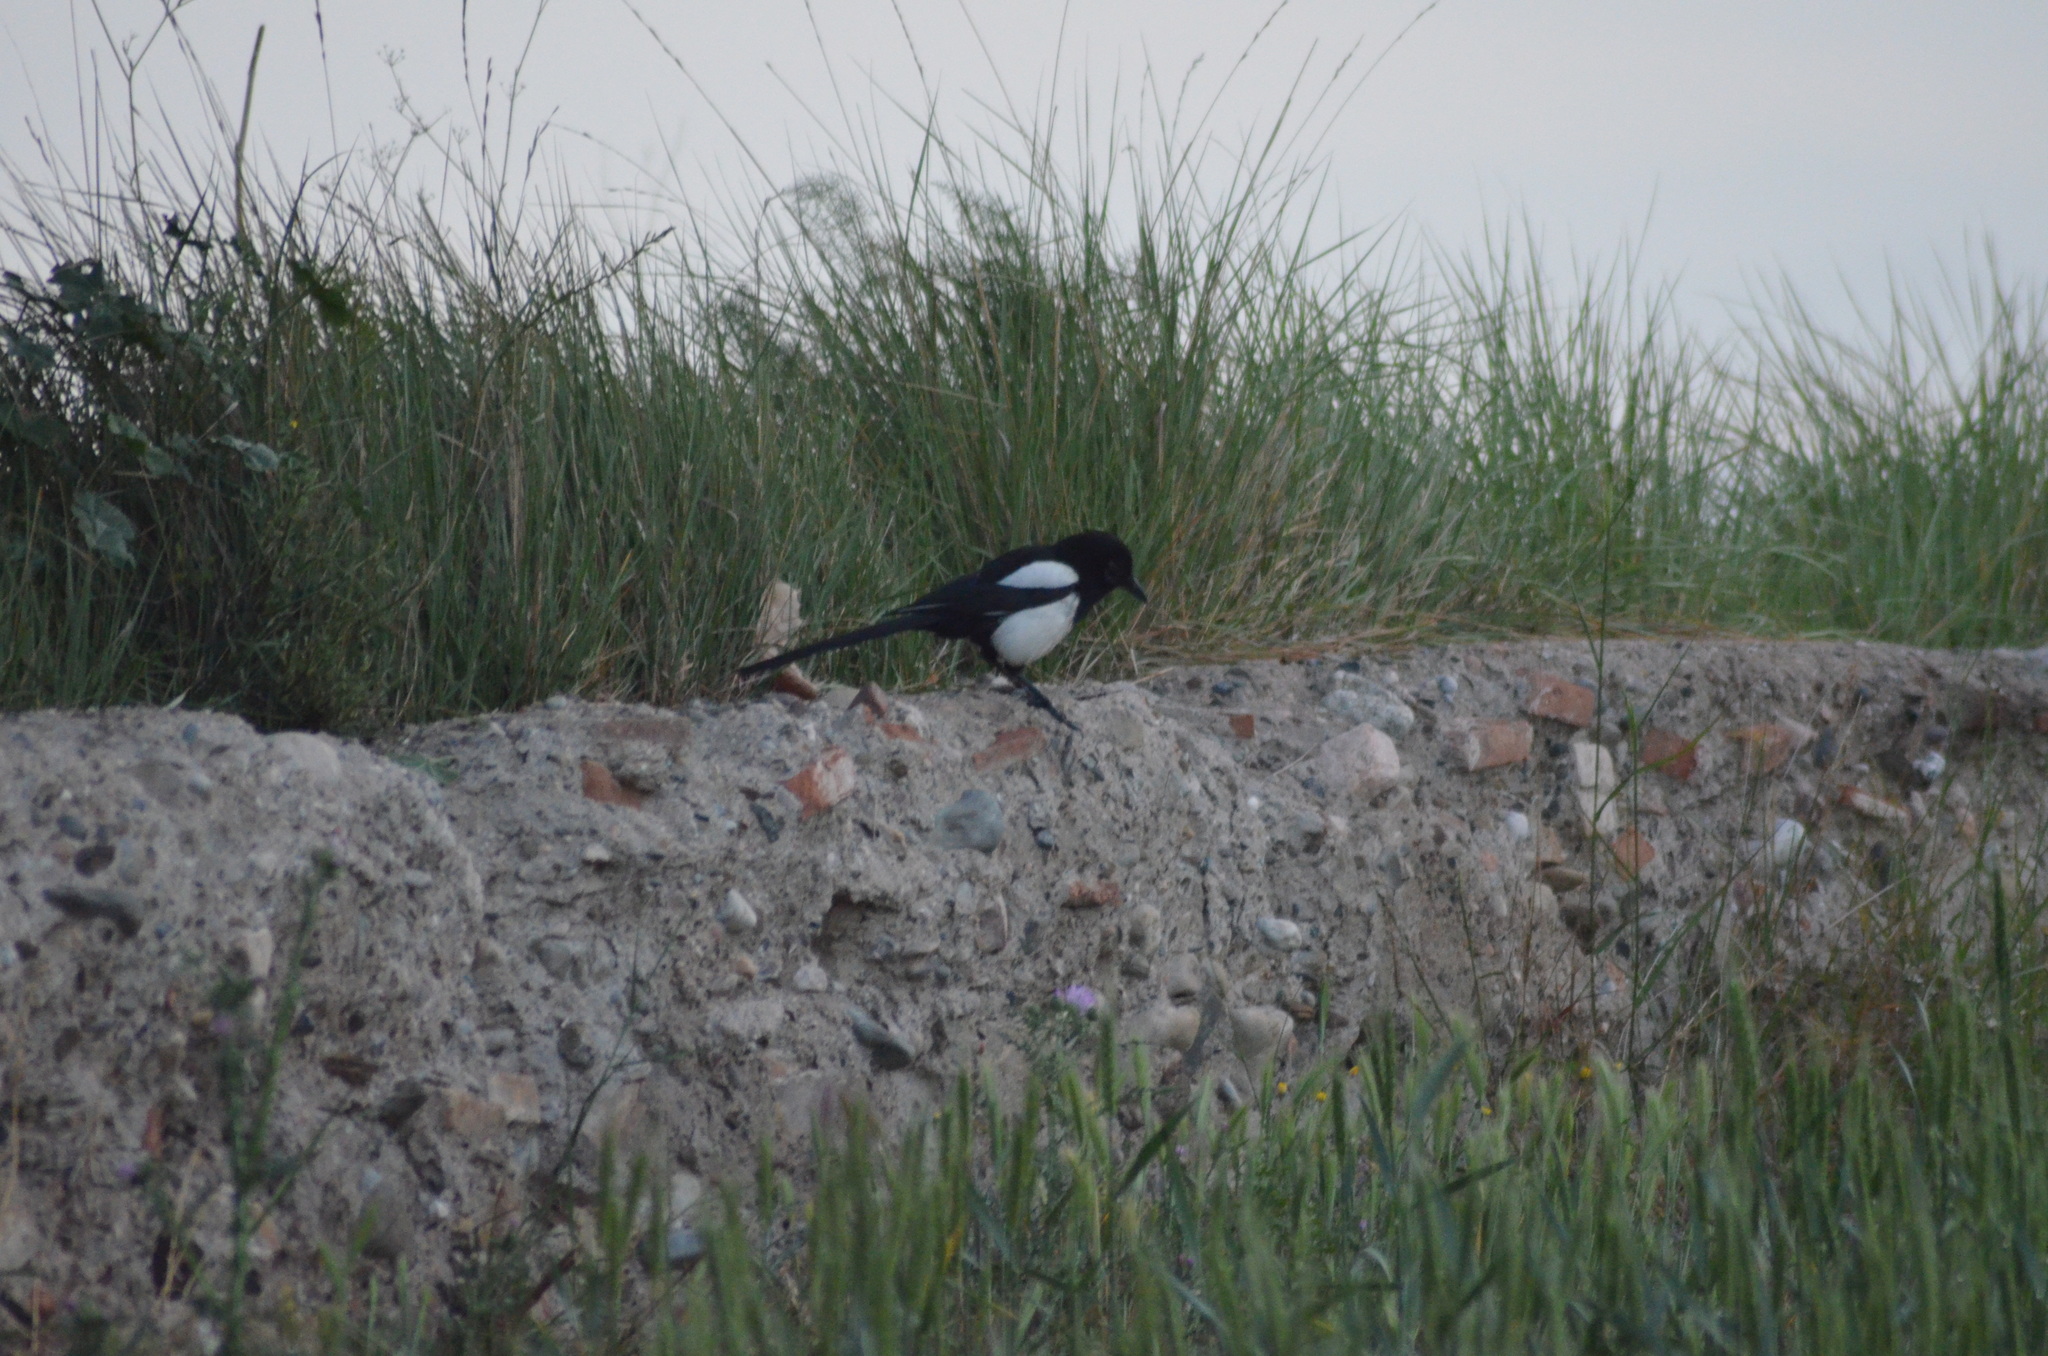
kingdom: Animalia
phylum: Chordata
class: Aves
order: Passeriformes
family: Corvidae
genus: Pica
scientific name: Pica pica
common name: Eurasian magpie
